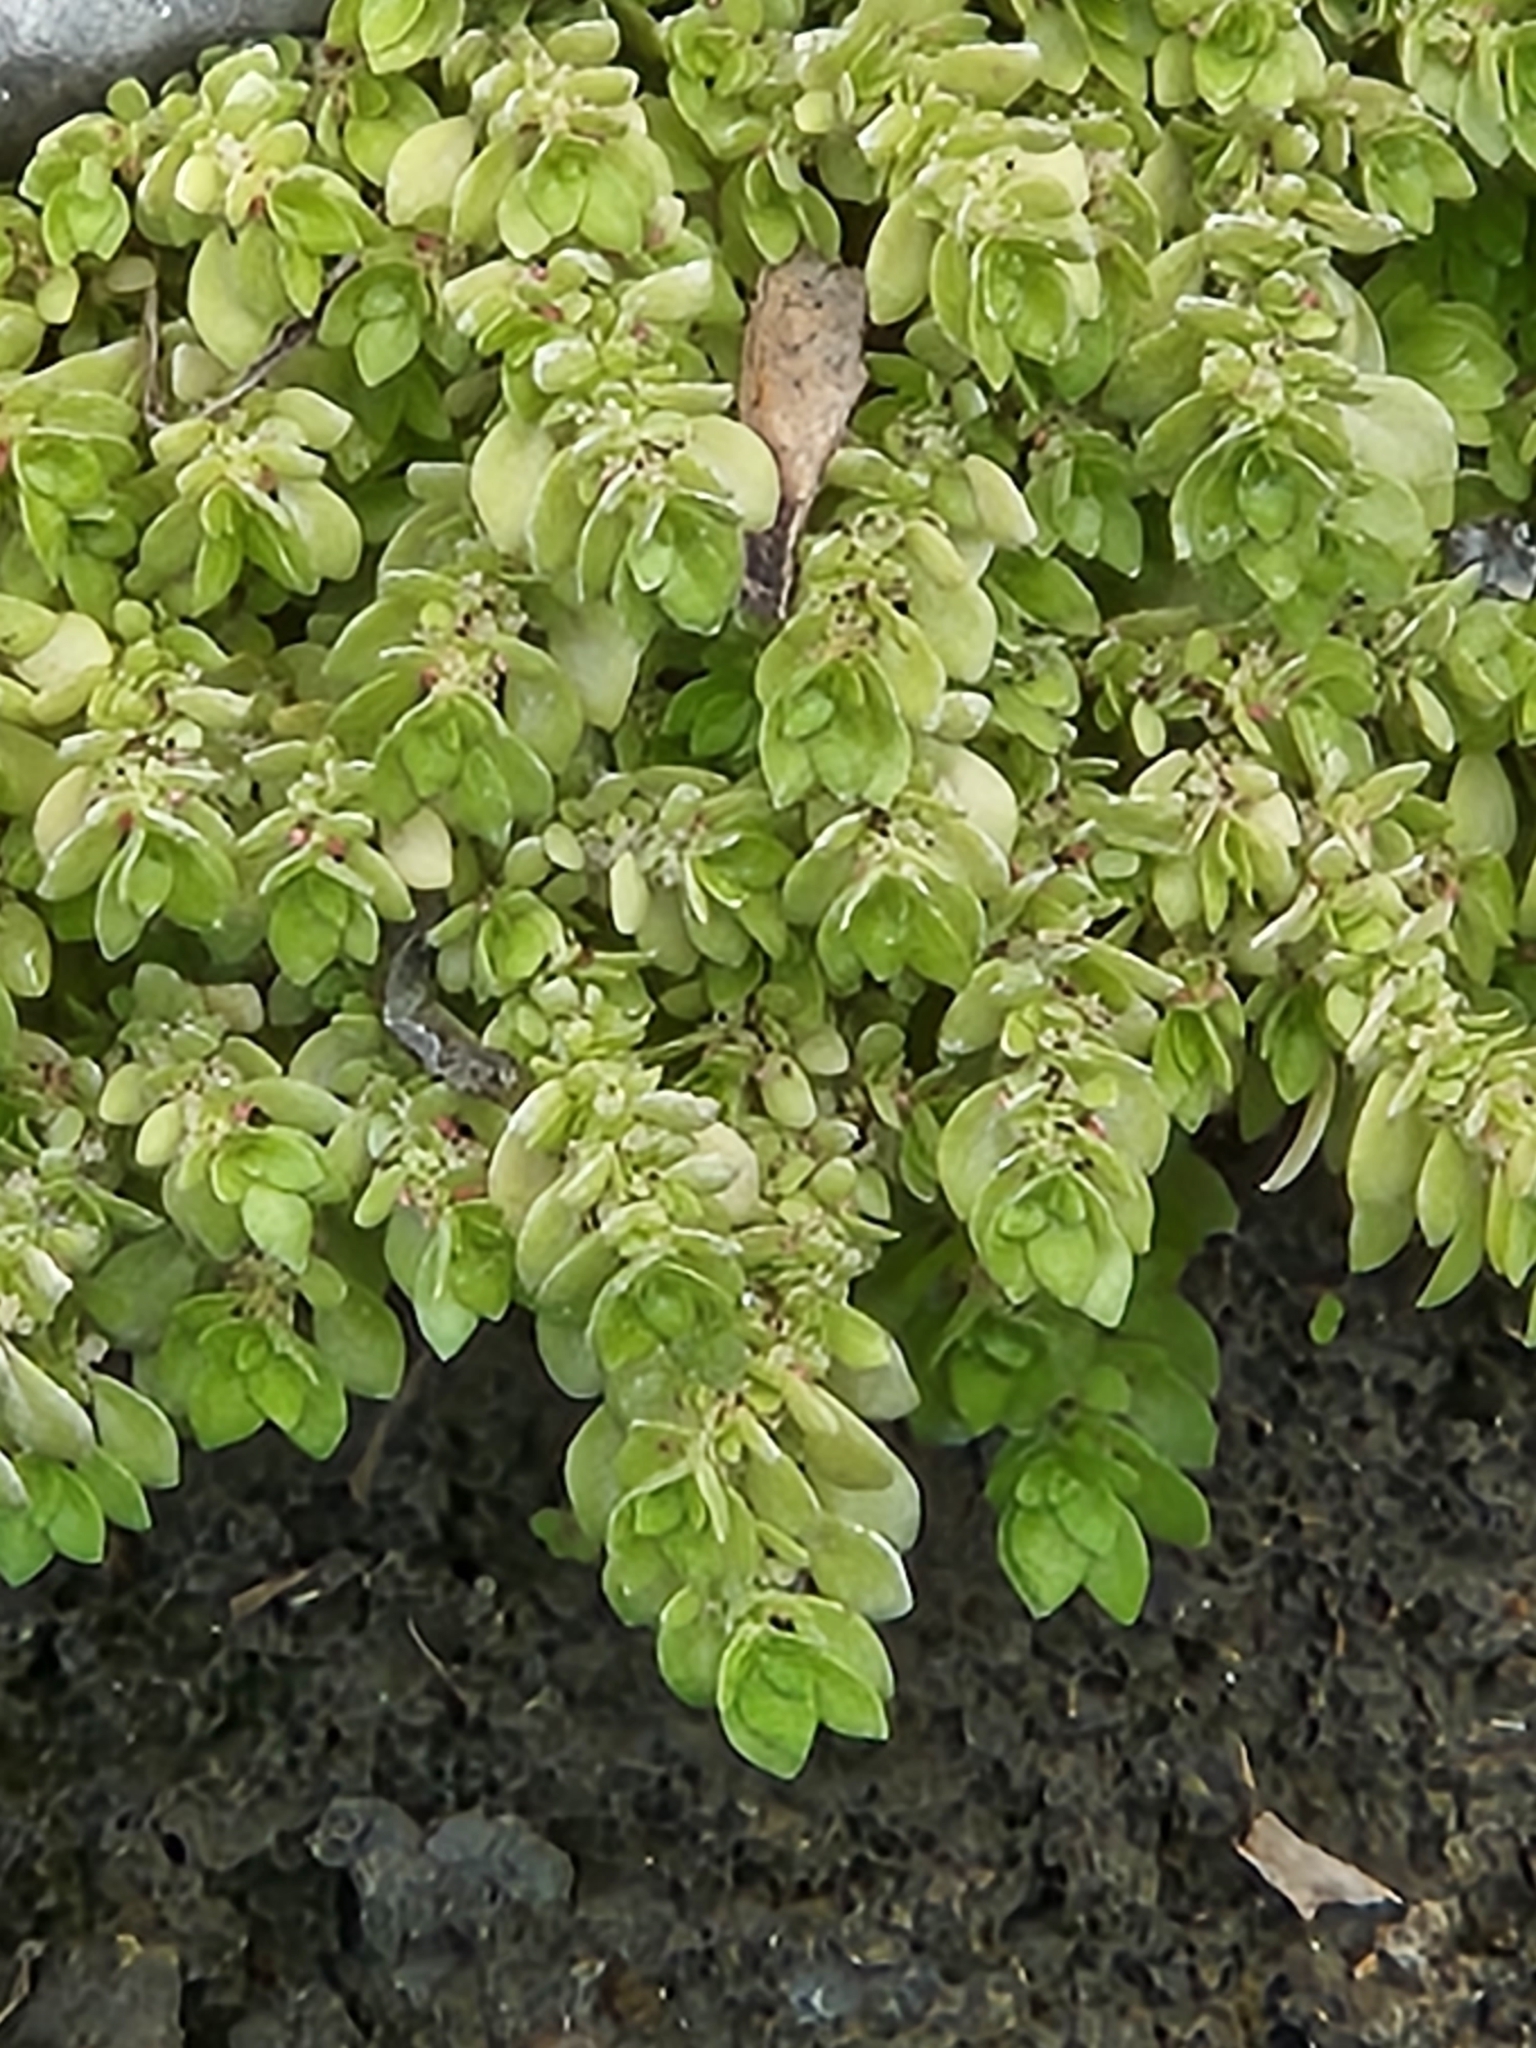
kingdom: Plantae
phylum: Tracheophyta
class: Magnoliopsida
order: Rosales
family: Urticaceae
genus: Pilea
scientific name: Pilea microphylla
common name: Artillery-plant
